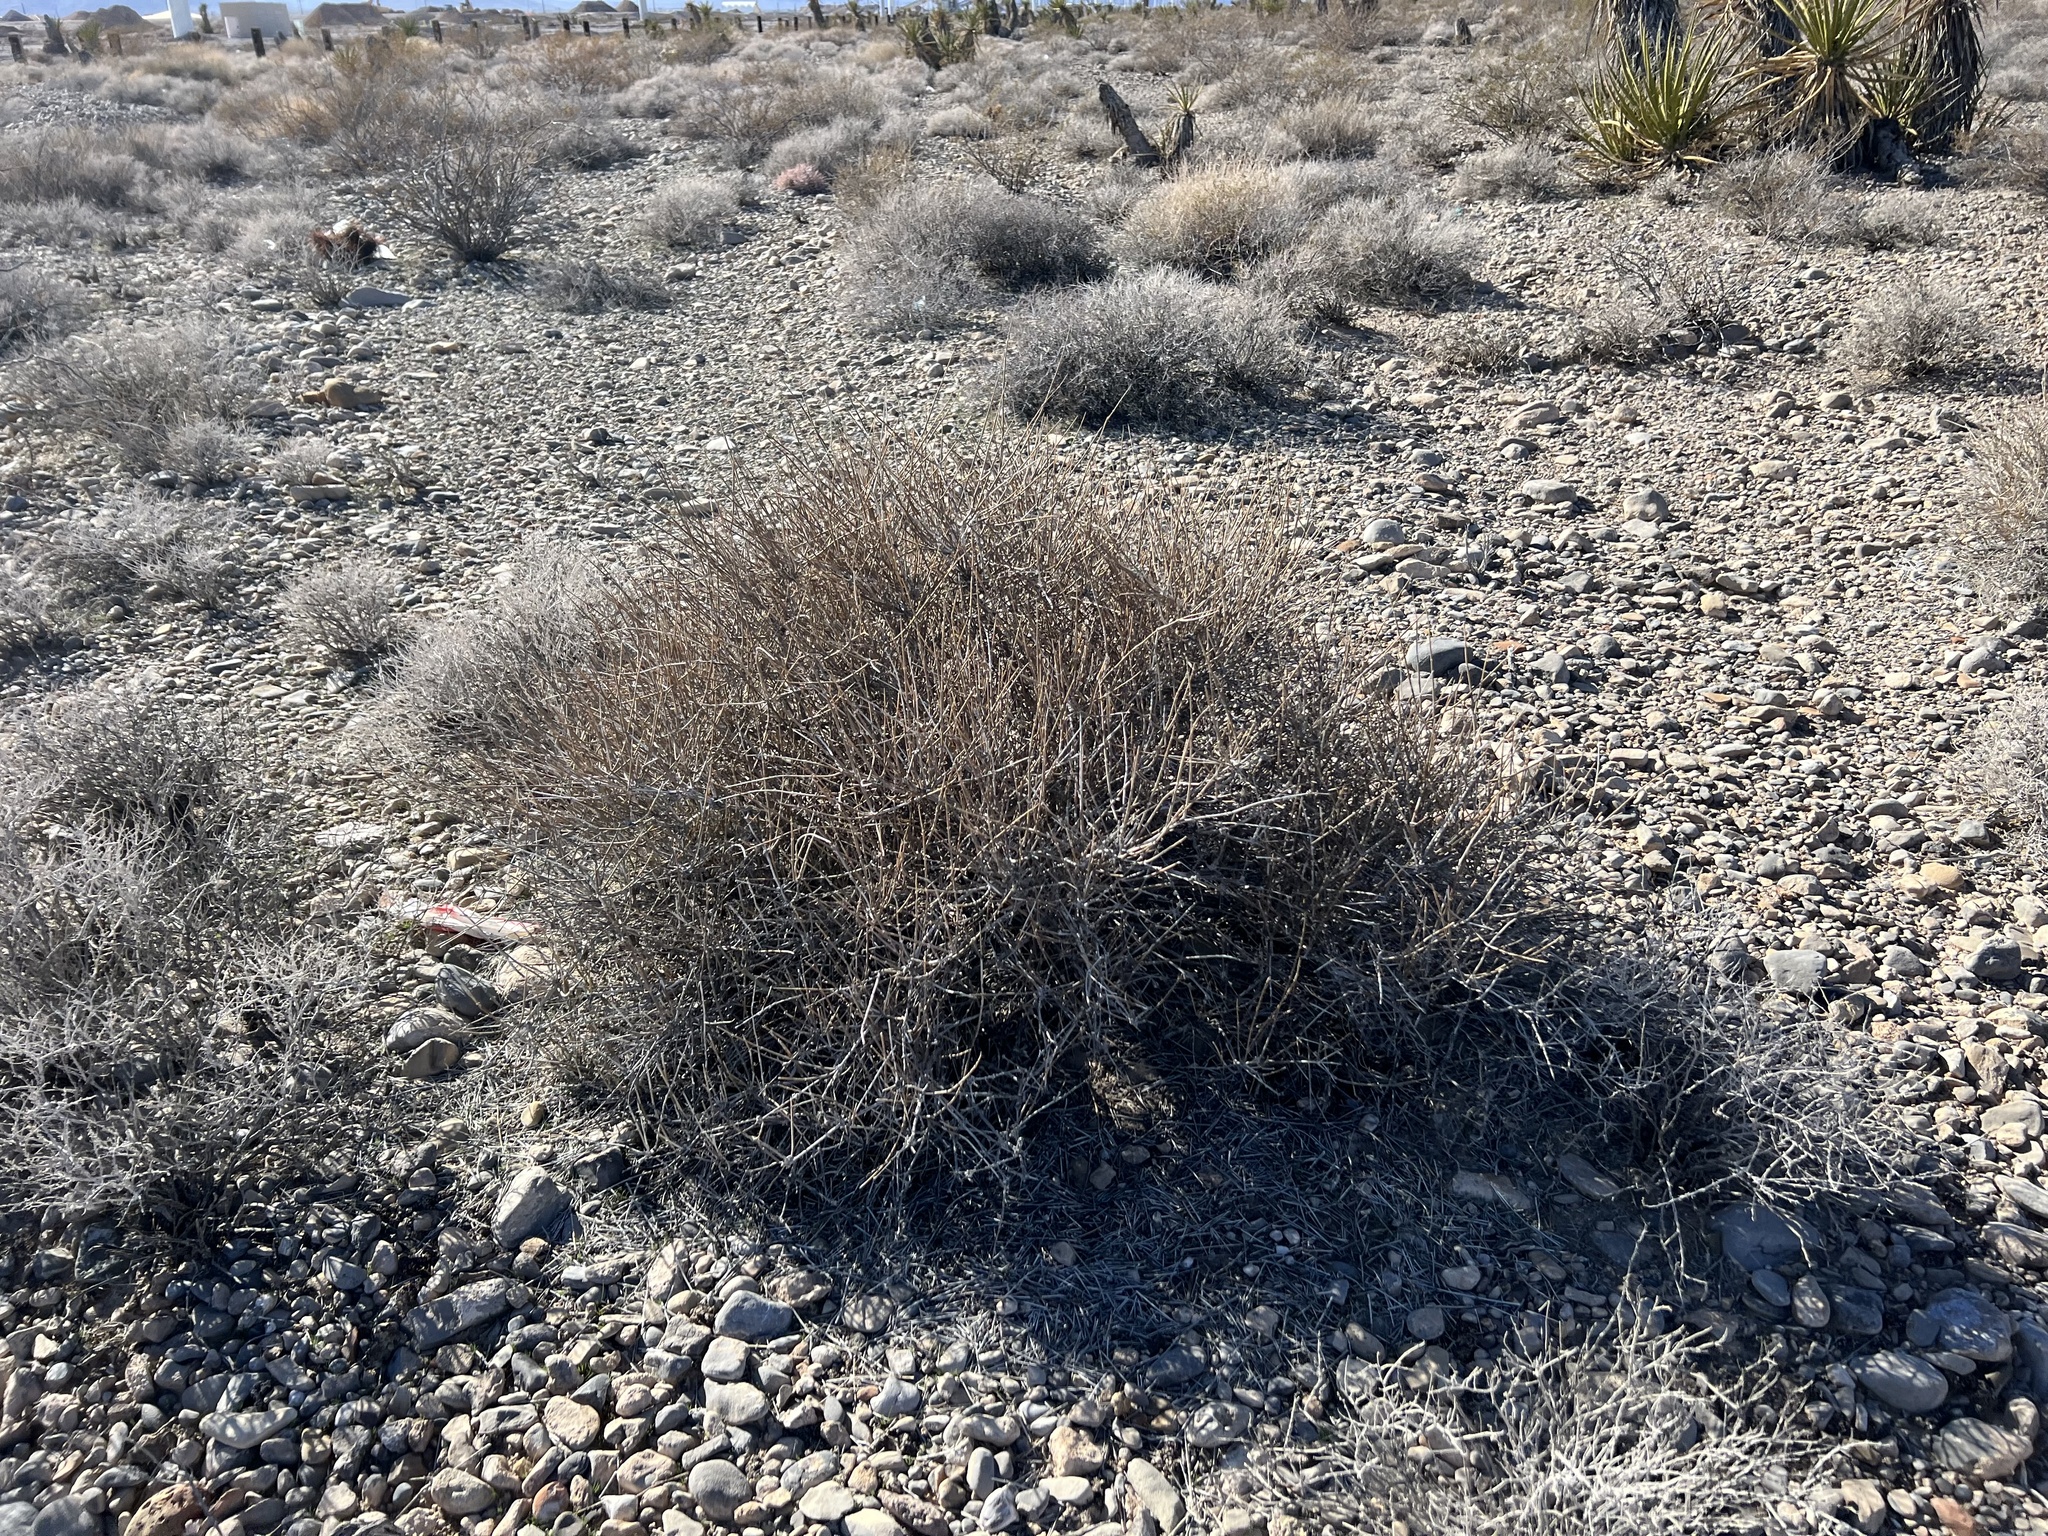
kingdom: Plantae
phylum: Tracheophyta
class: Magnoliopsida
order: Lamiales
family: Oleaceae
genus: Menodora
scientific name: Menodora spinescens
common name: Spiny menodora
